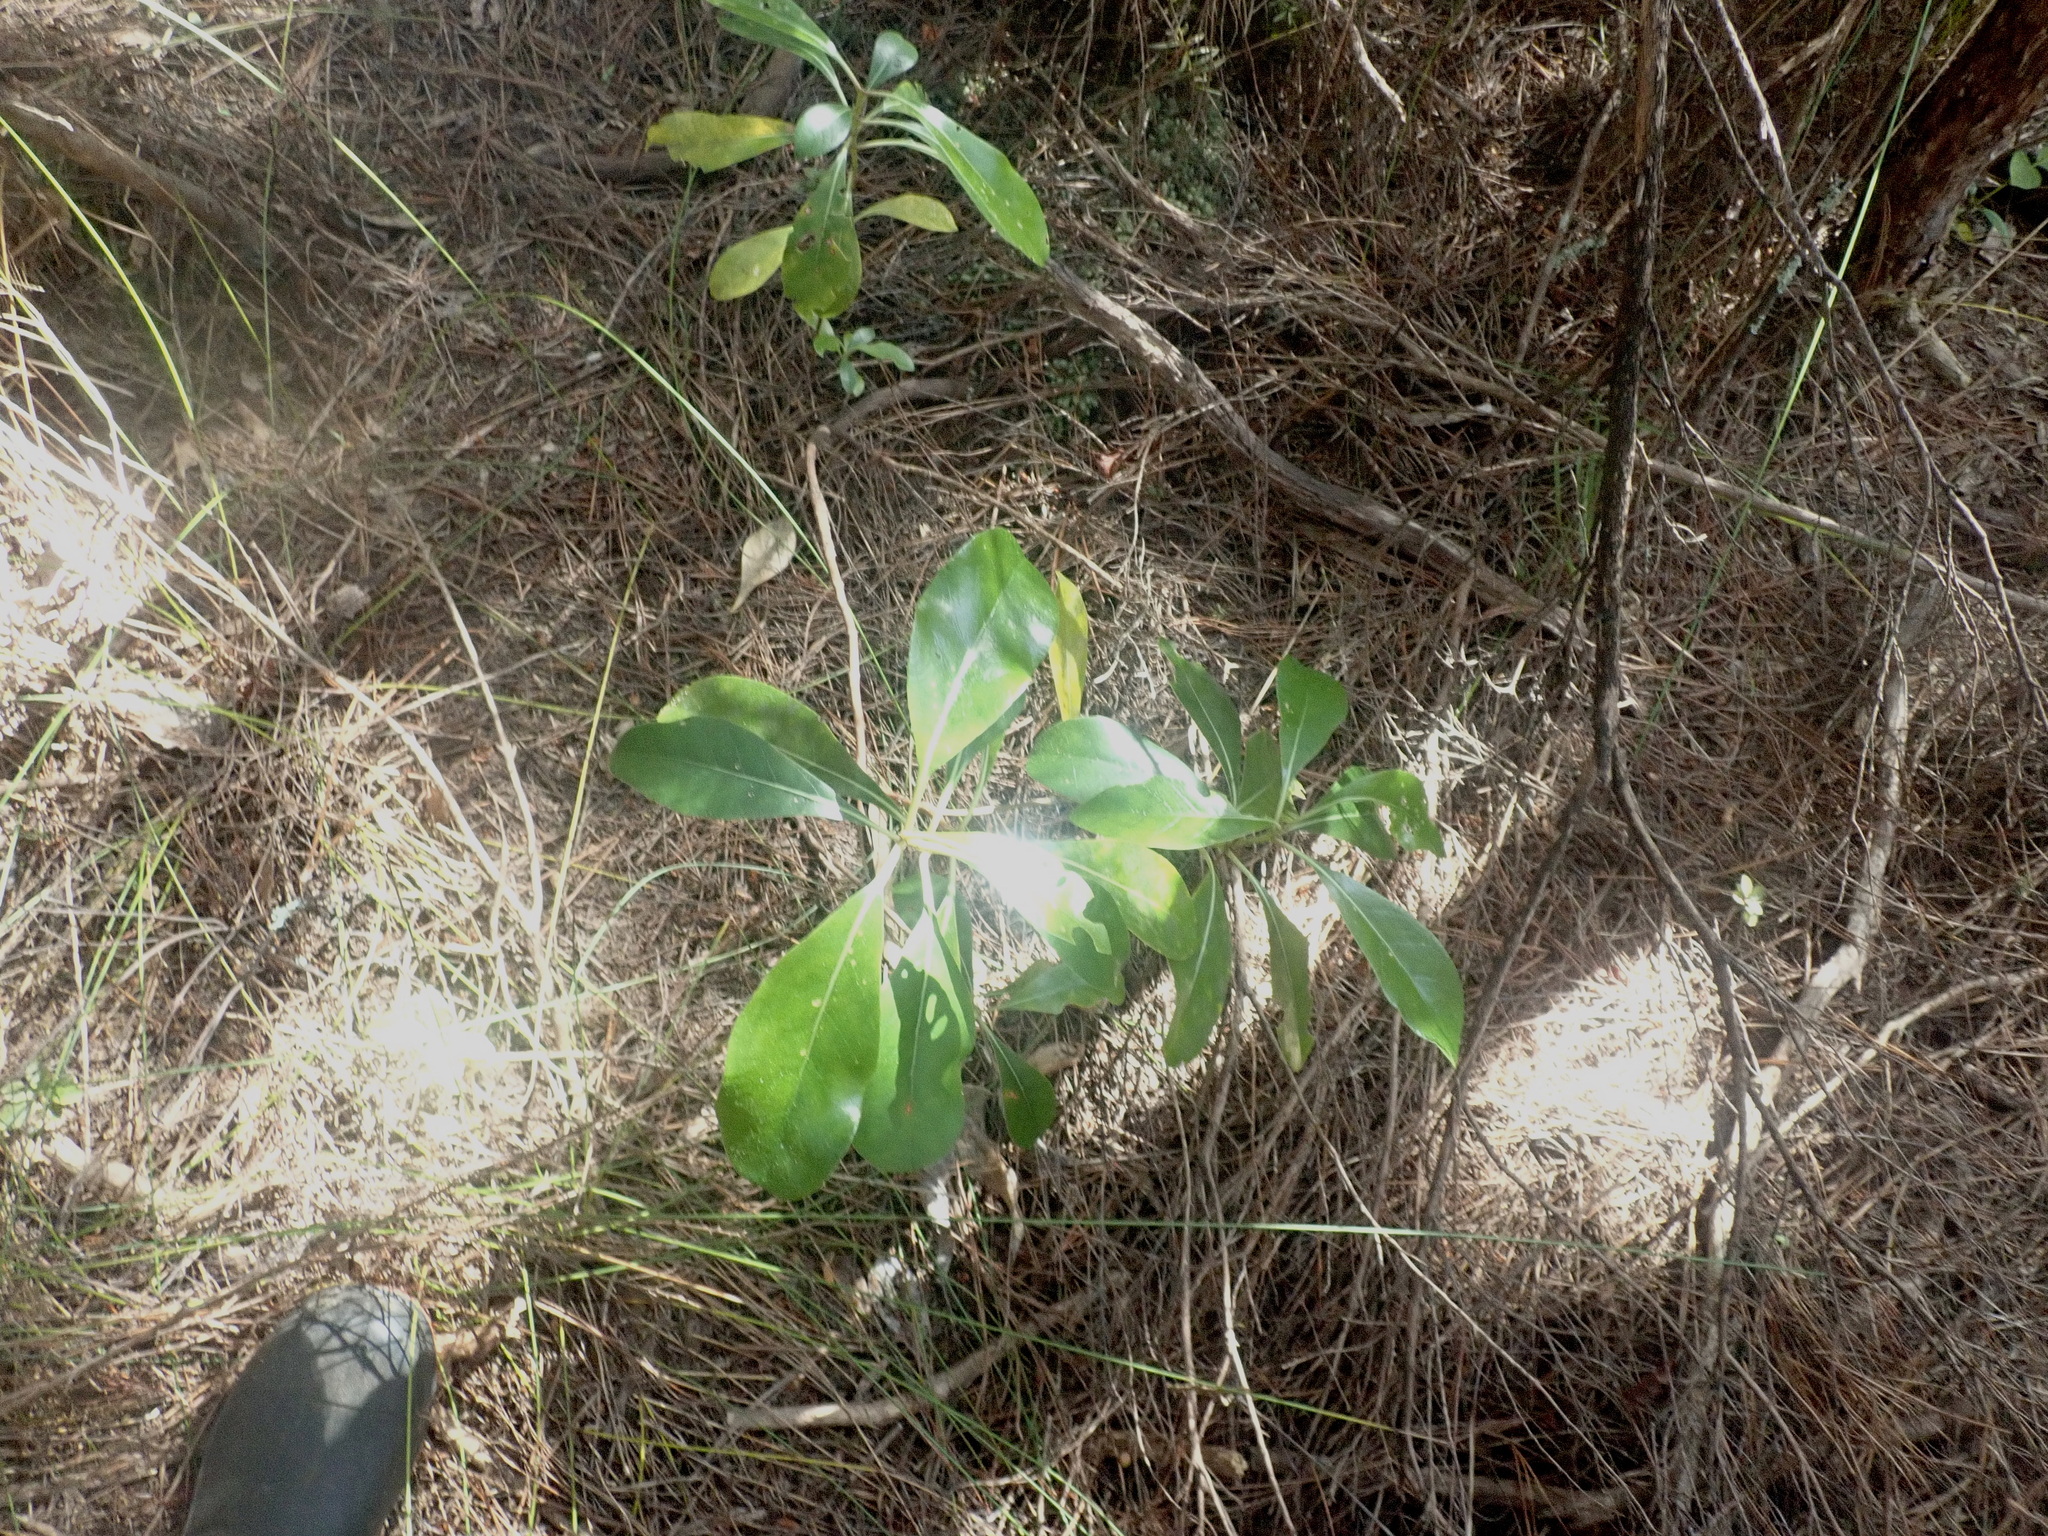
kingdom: Plantae
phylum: Tracheophyta
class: Magnoliopsida
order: Gentianales
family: Rubiaceae
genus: Coprosma
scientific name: Coprosma lucida
